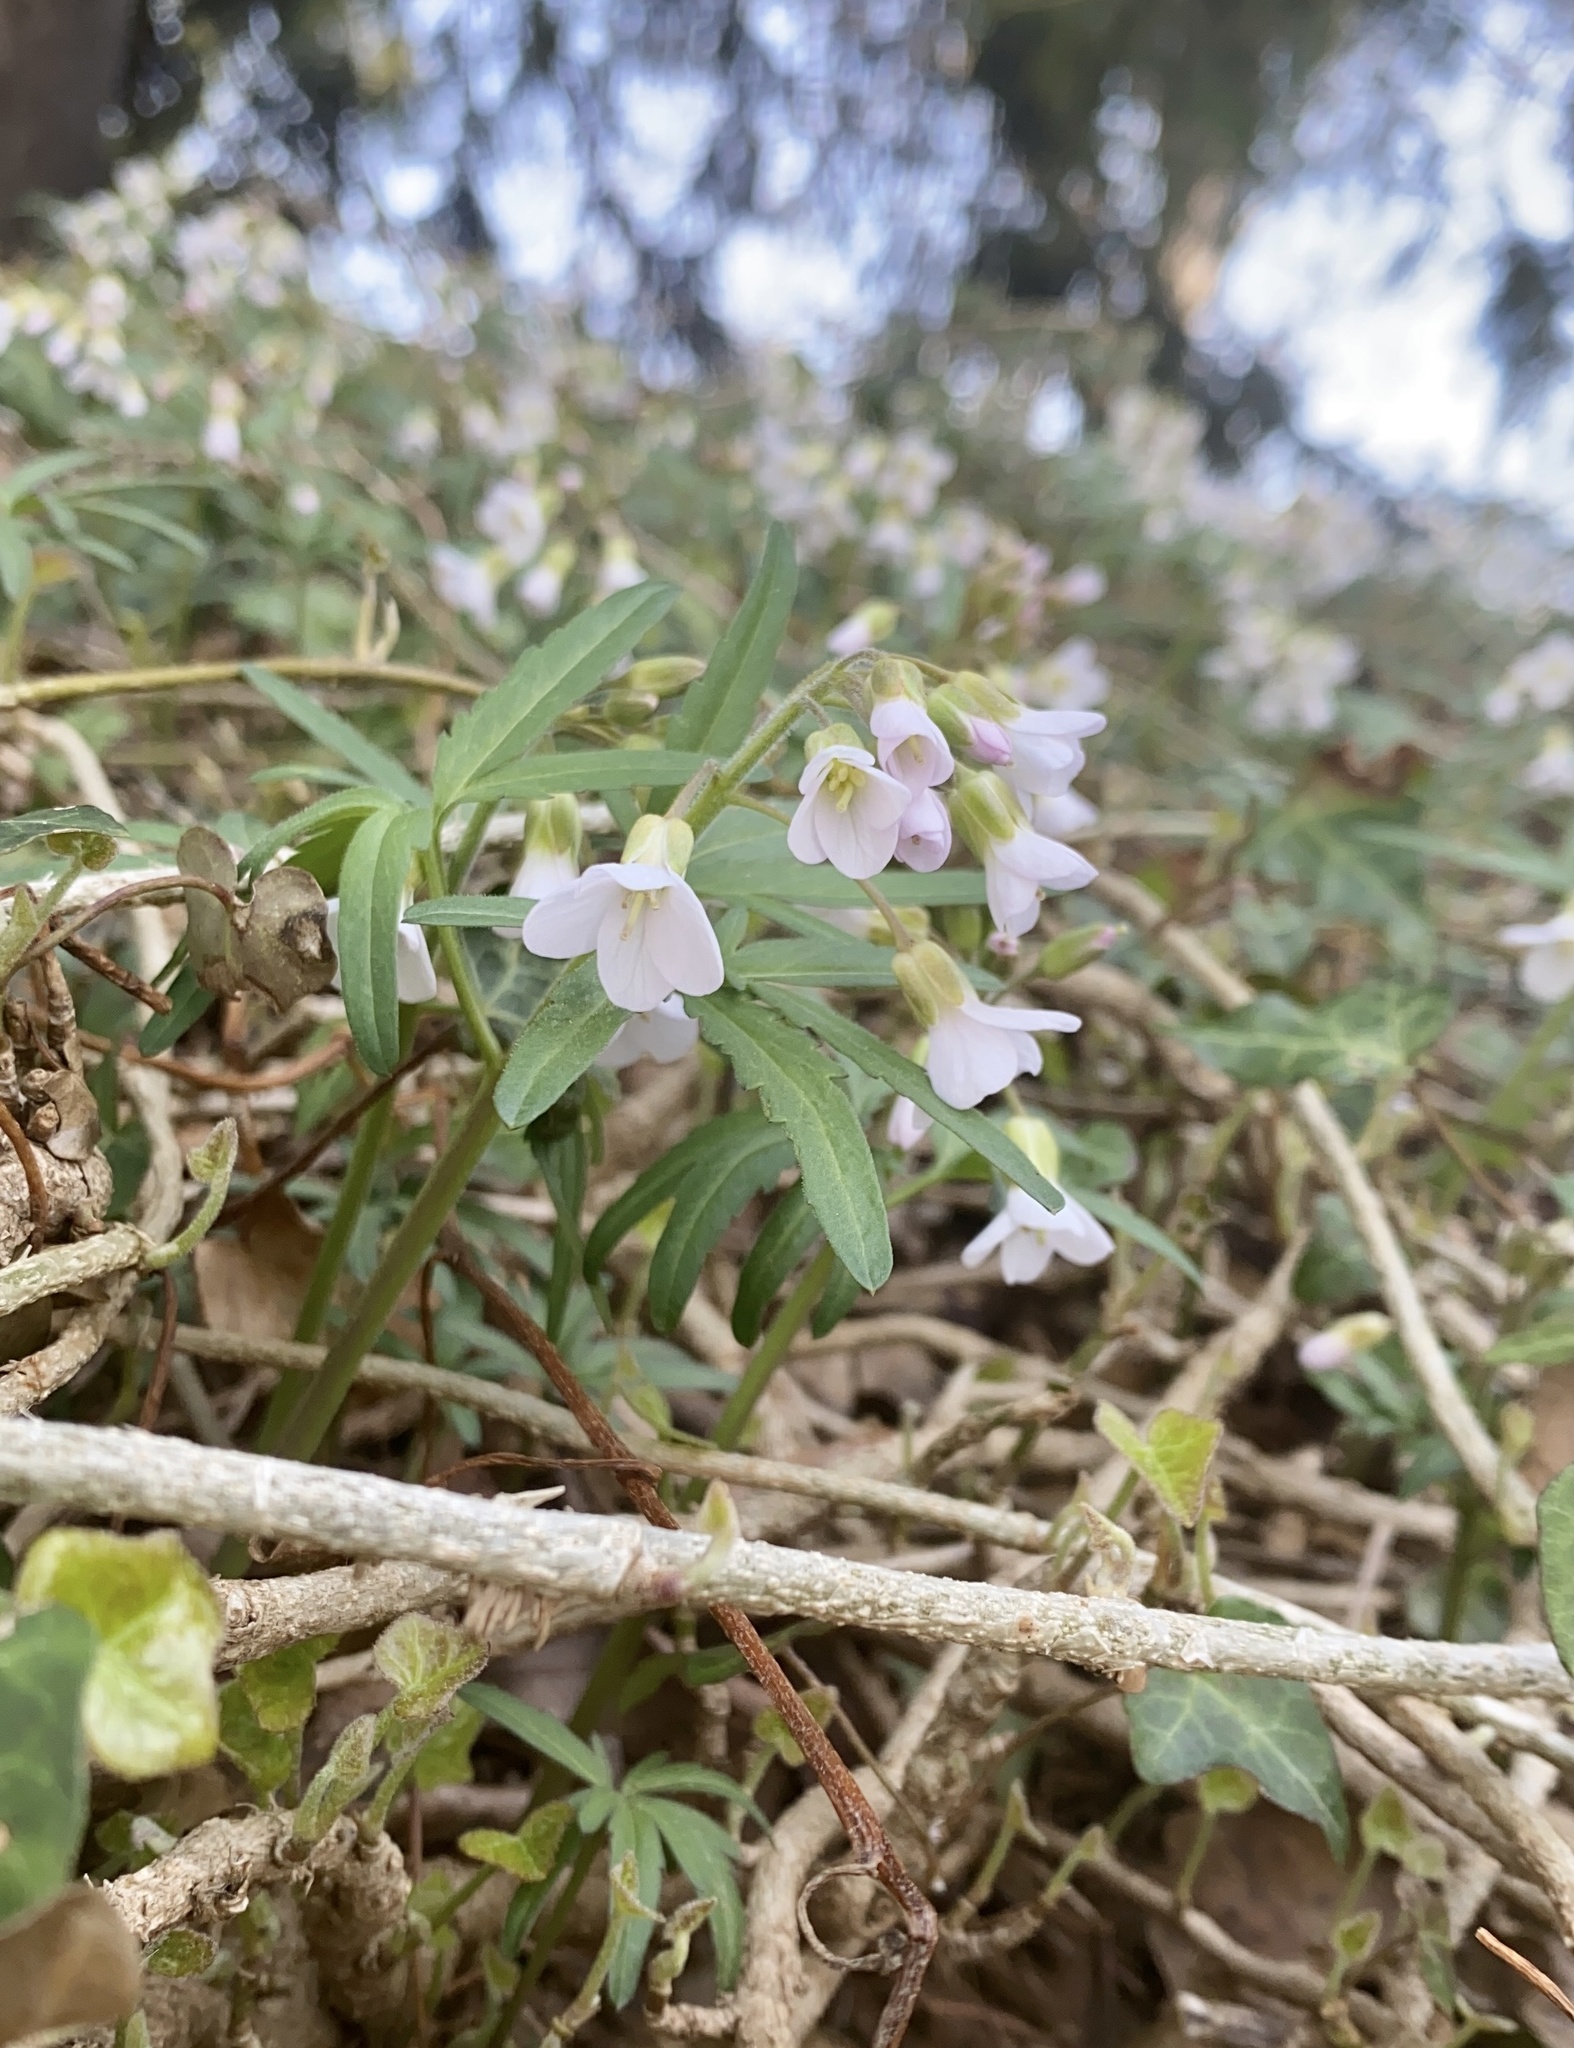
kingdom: Plantae
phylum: Tracheophyta
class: Magnoliopsida
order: Brassicales
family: Brassicaceae
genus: Cardamine
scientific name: Cardamine concatenata
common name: Cut-leaf toothcup
